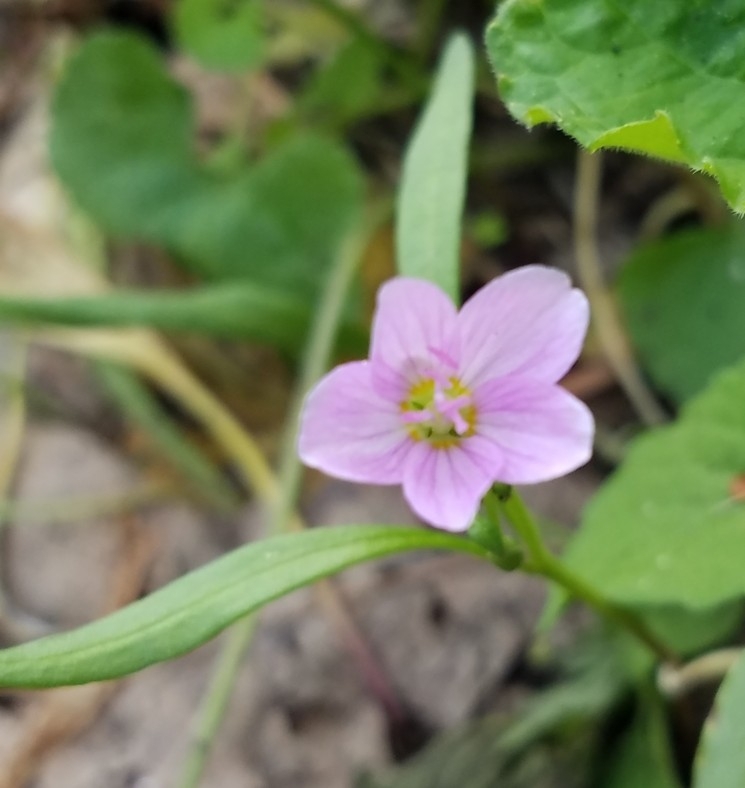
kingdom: Plantae
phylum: Tracheophyta
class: Magnoliopsida
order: Caryophyllales
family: Montiaceae
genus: Claytonia
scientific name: Claytonia virginica
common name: Virginia springbeauty
